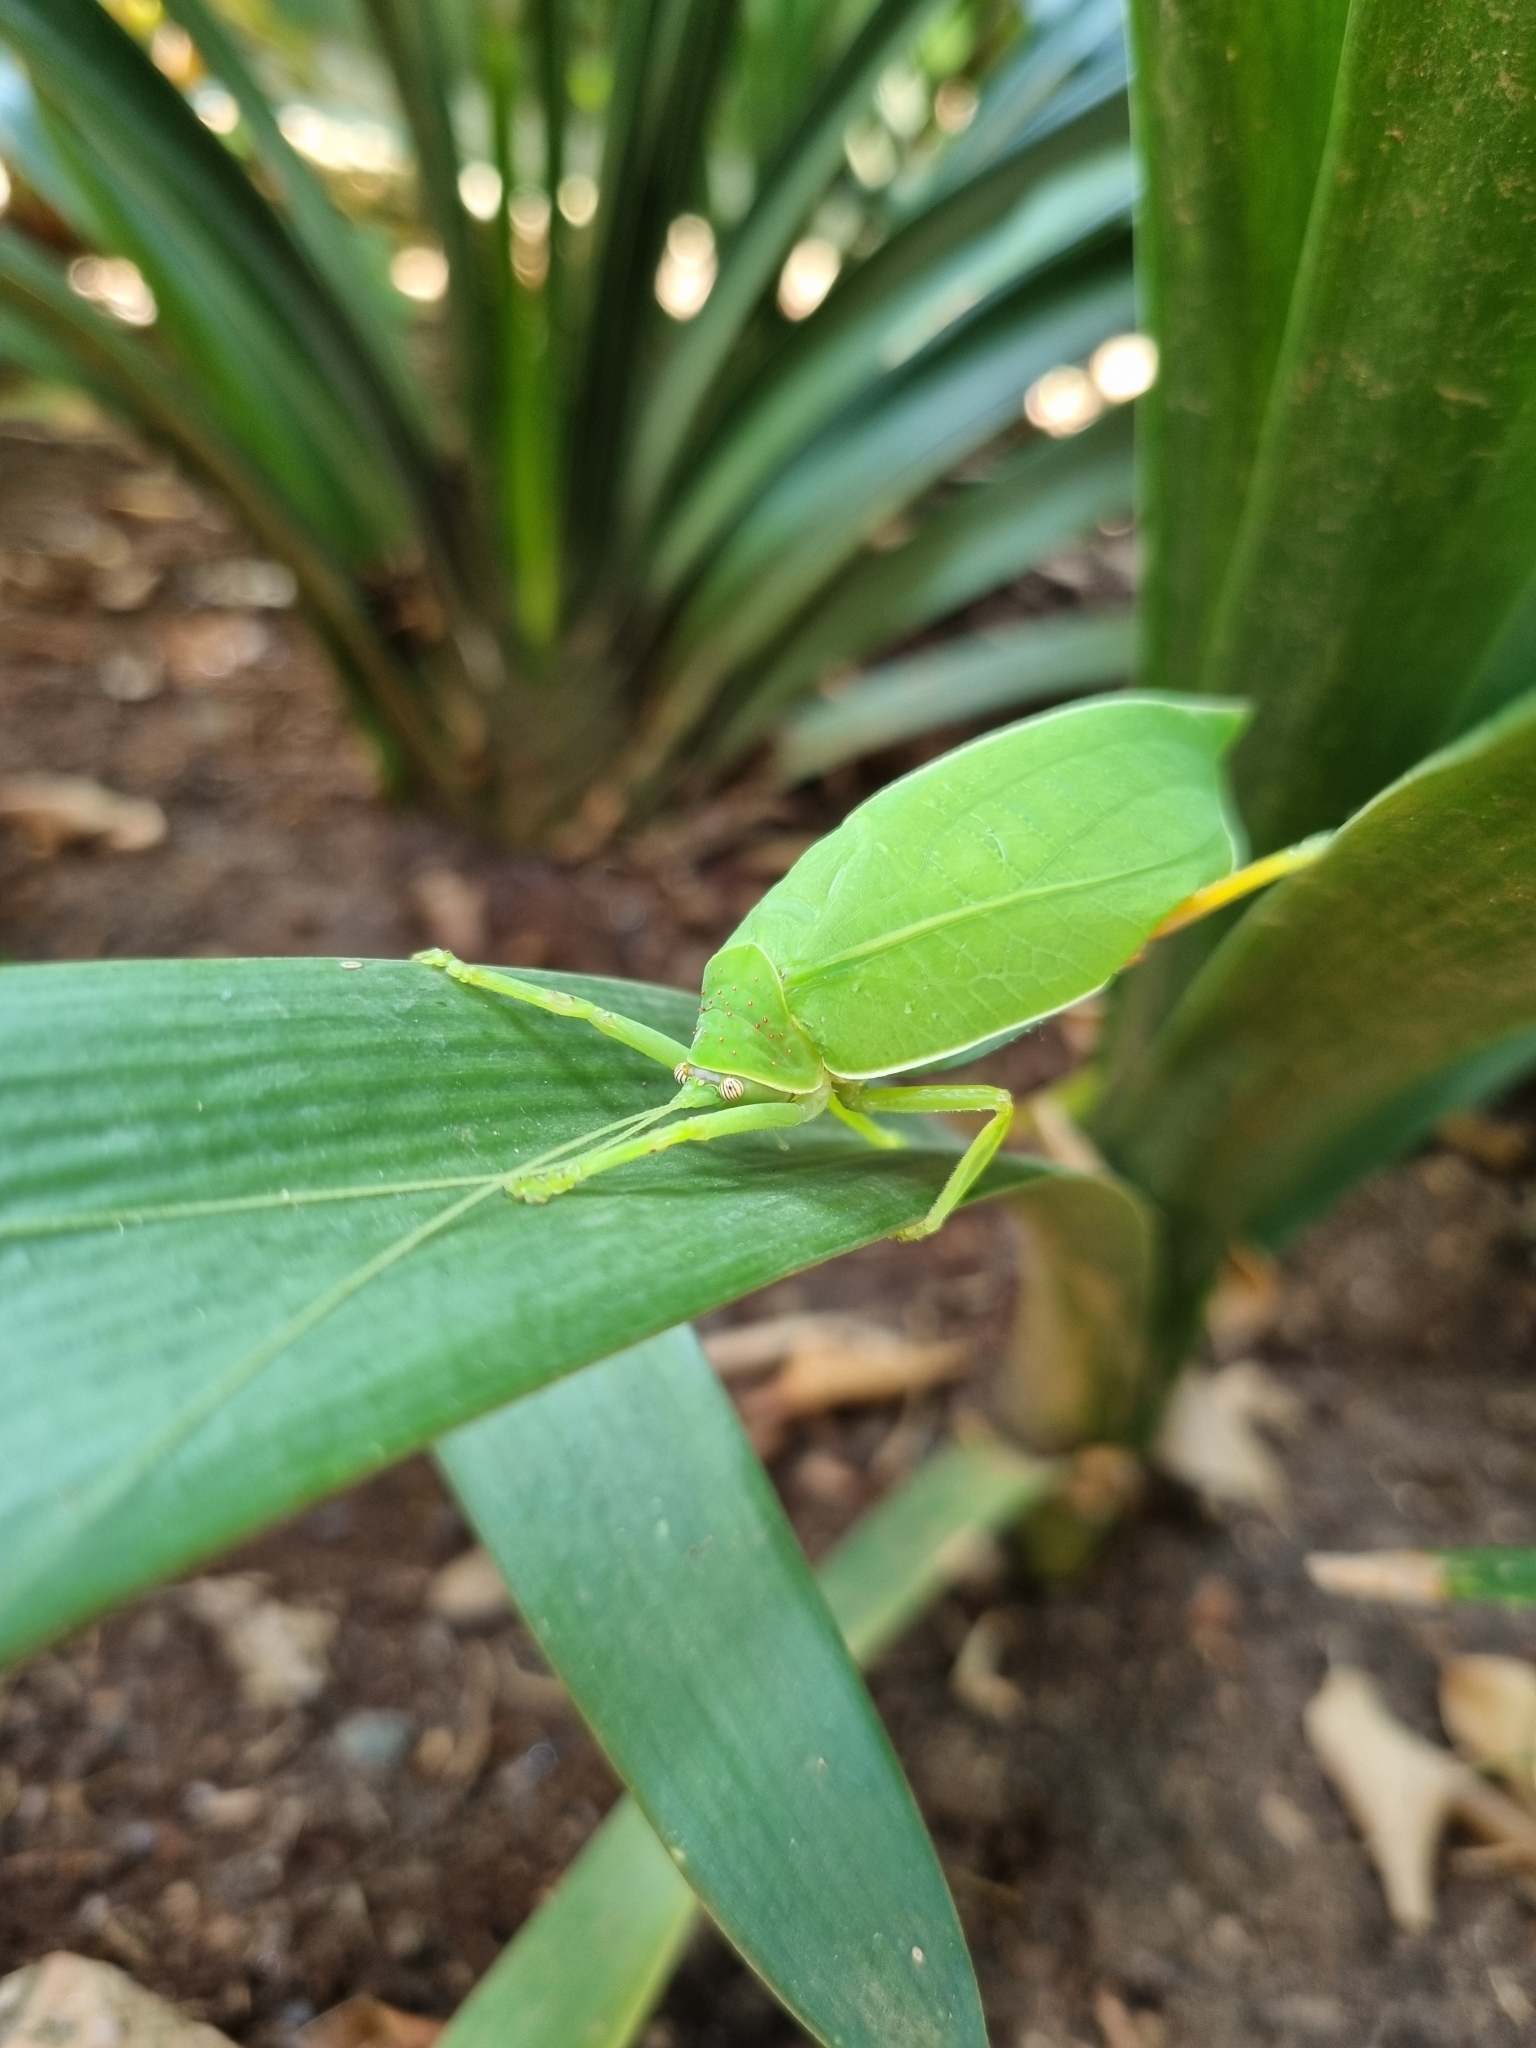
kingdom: Animalia
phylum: Arthropoda
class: Insecta
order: Orthoptera
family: Tettigoniidae
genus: Zabalius
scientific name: Zabalius ophthalmicus
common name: Blue-legged sylvan katydid
